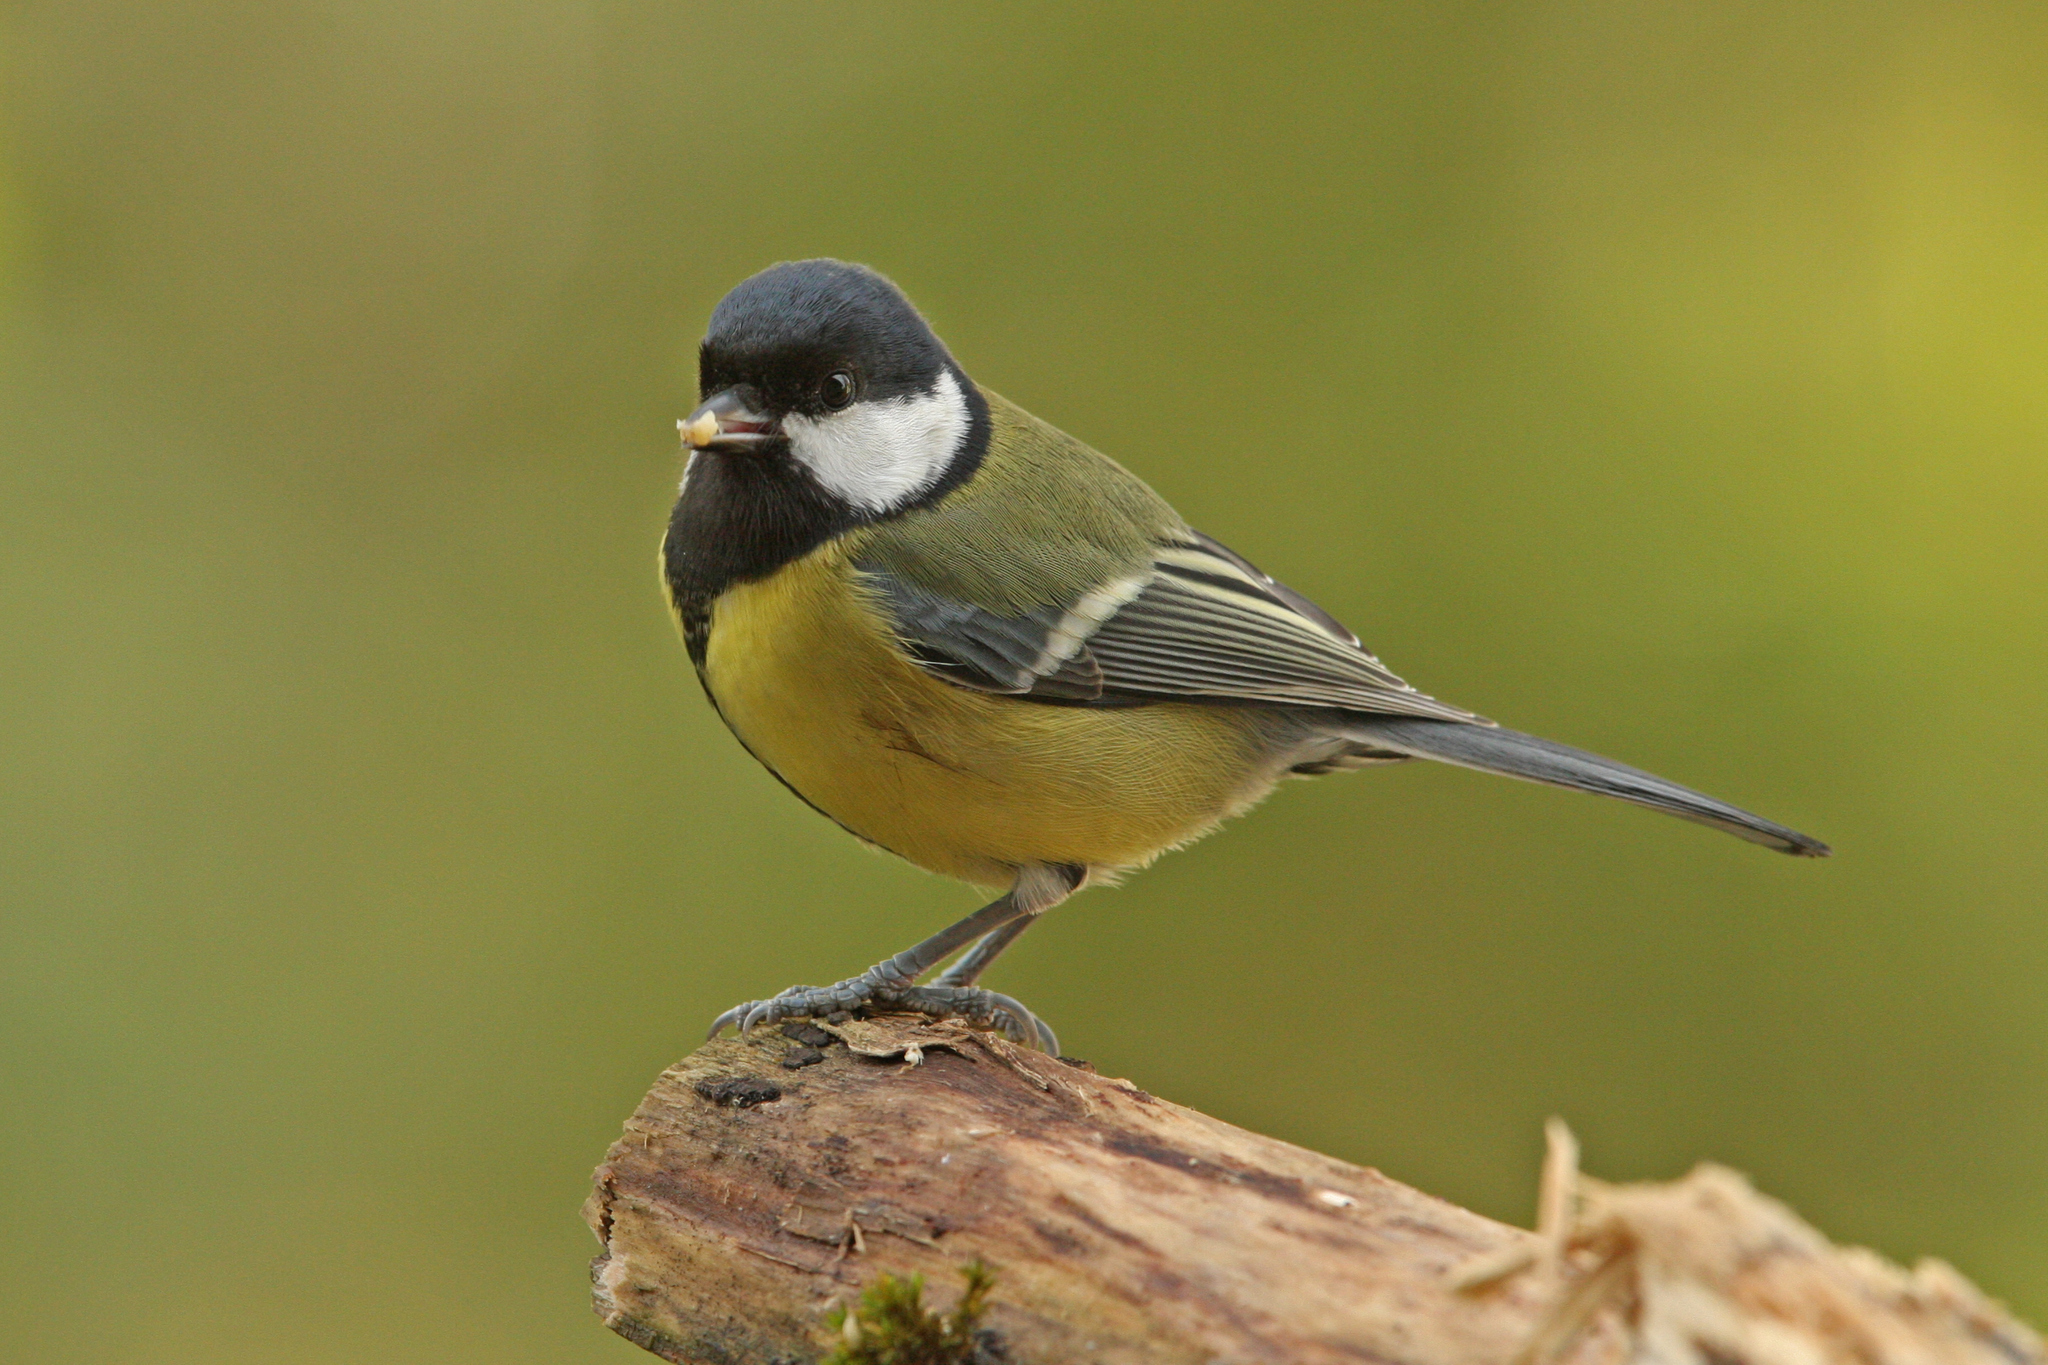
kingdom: Animalia
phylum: Chordata
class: Aves
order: Passeriformes
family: Paridae
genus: Parus
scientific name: Parus major
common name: Great tit
